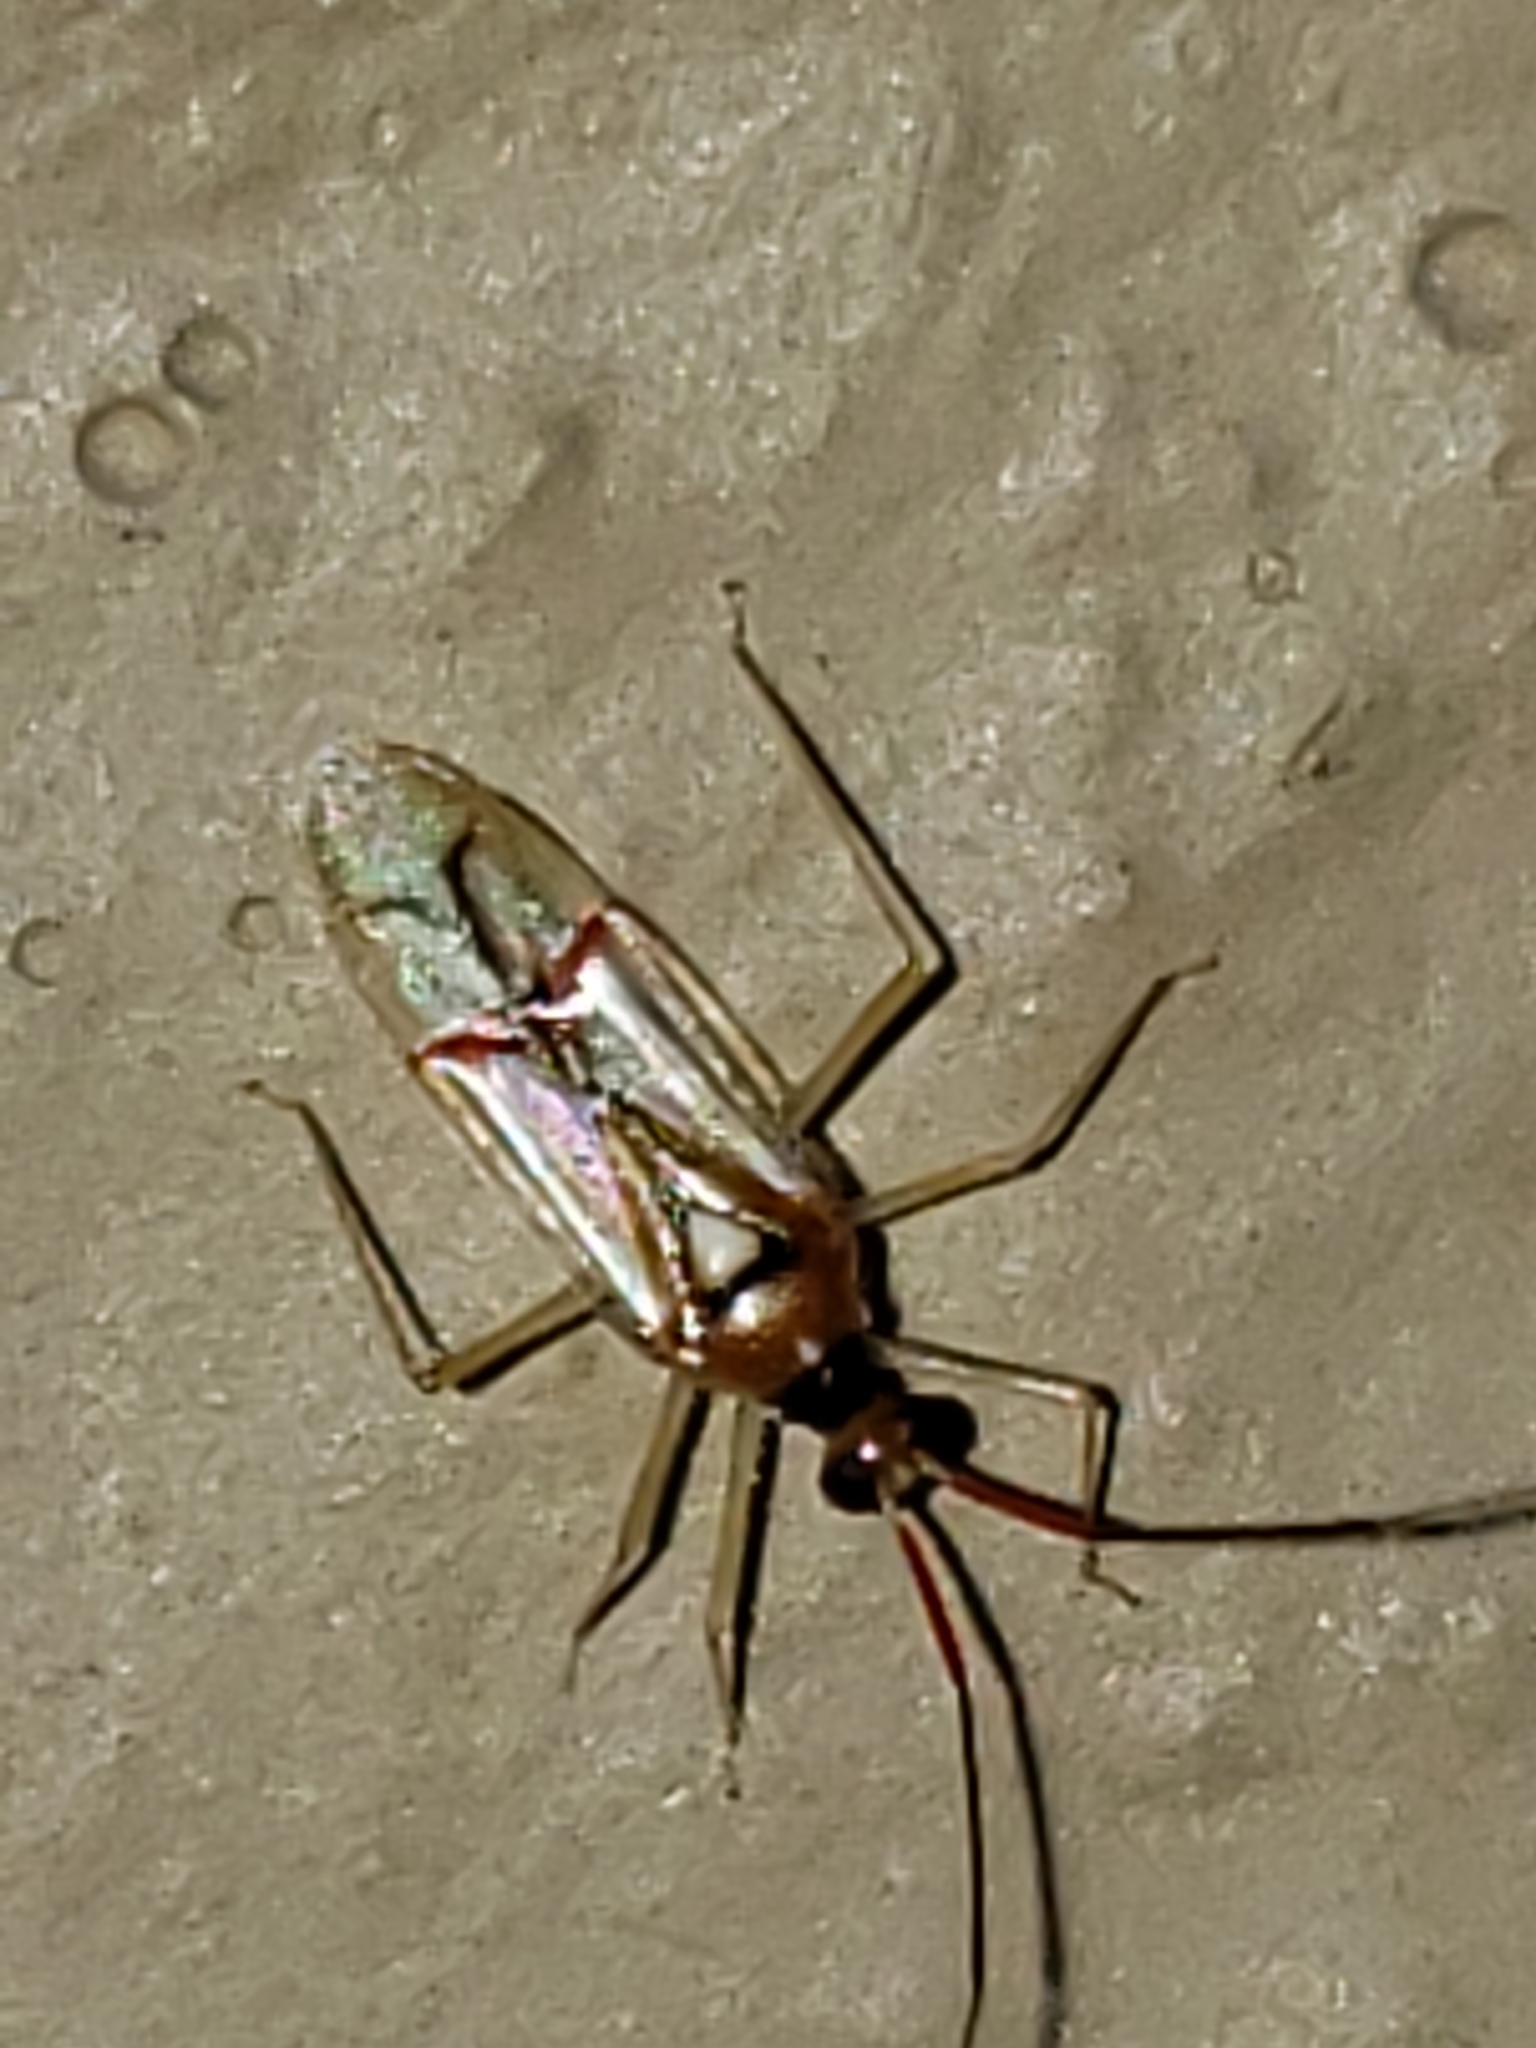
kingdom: Animalia
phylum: Arthropoda
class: Insecta
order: Hemiptera
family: Miridae
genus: Hyaliodes
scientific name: Hyaliodes harti
